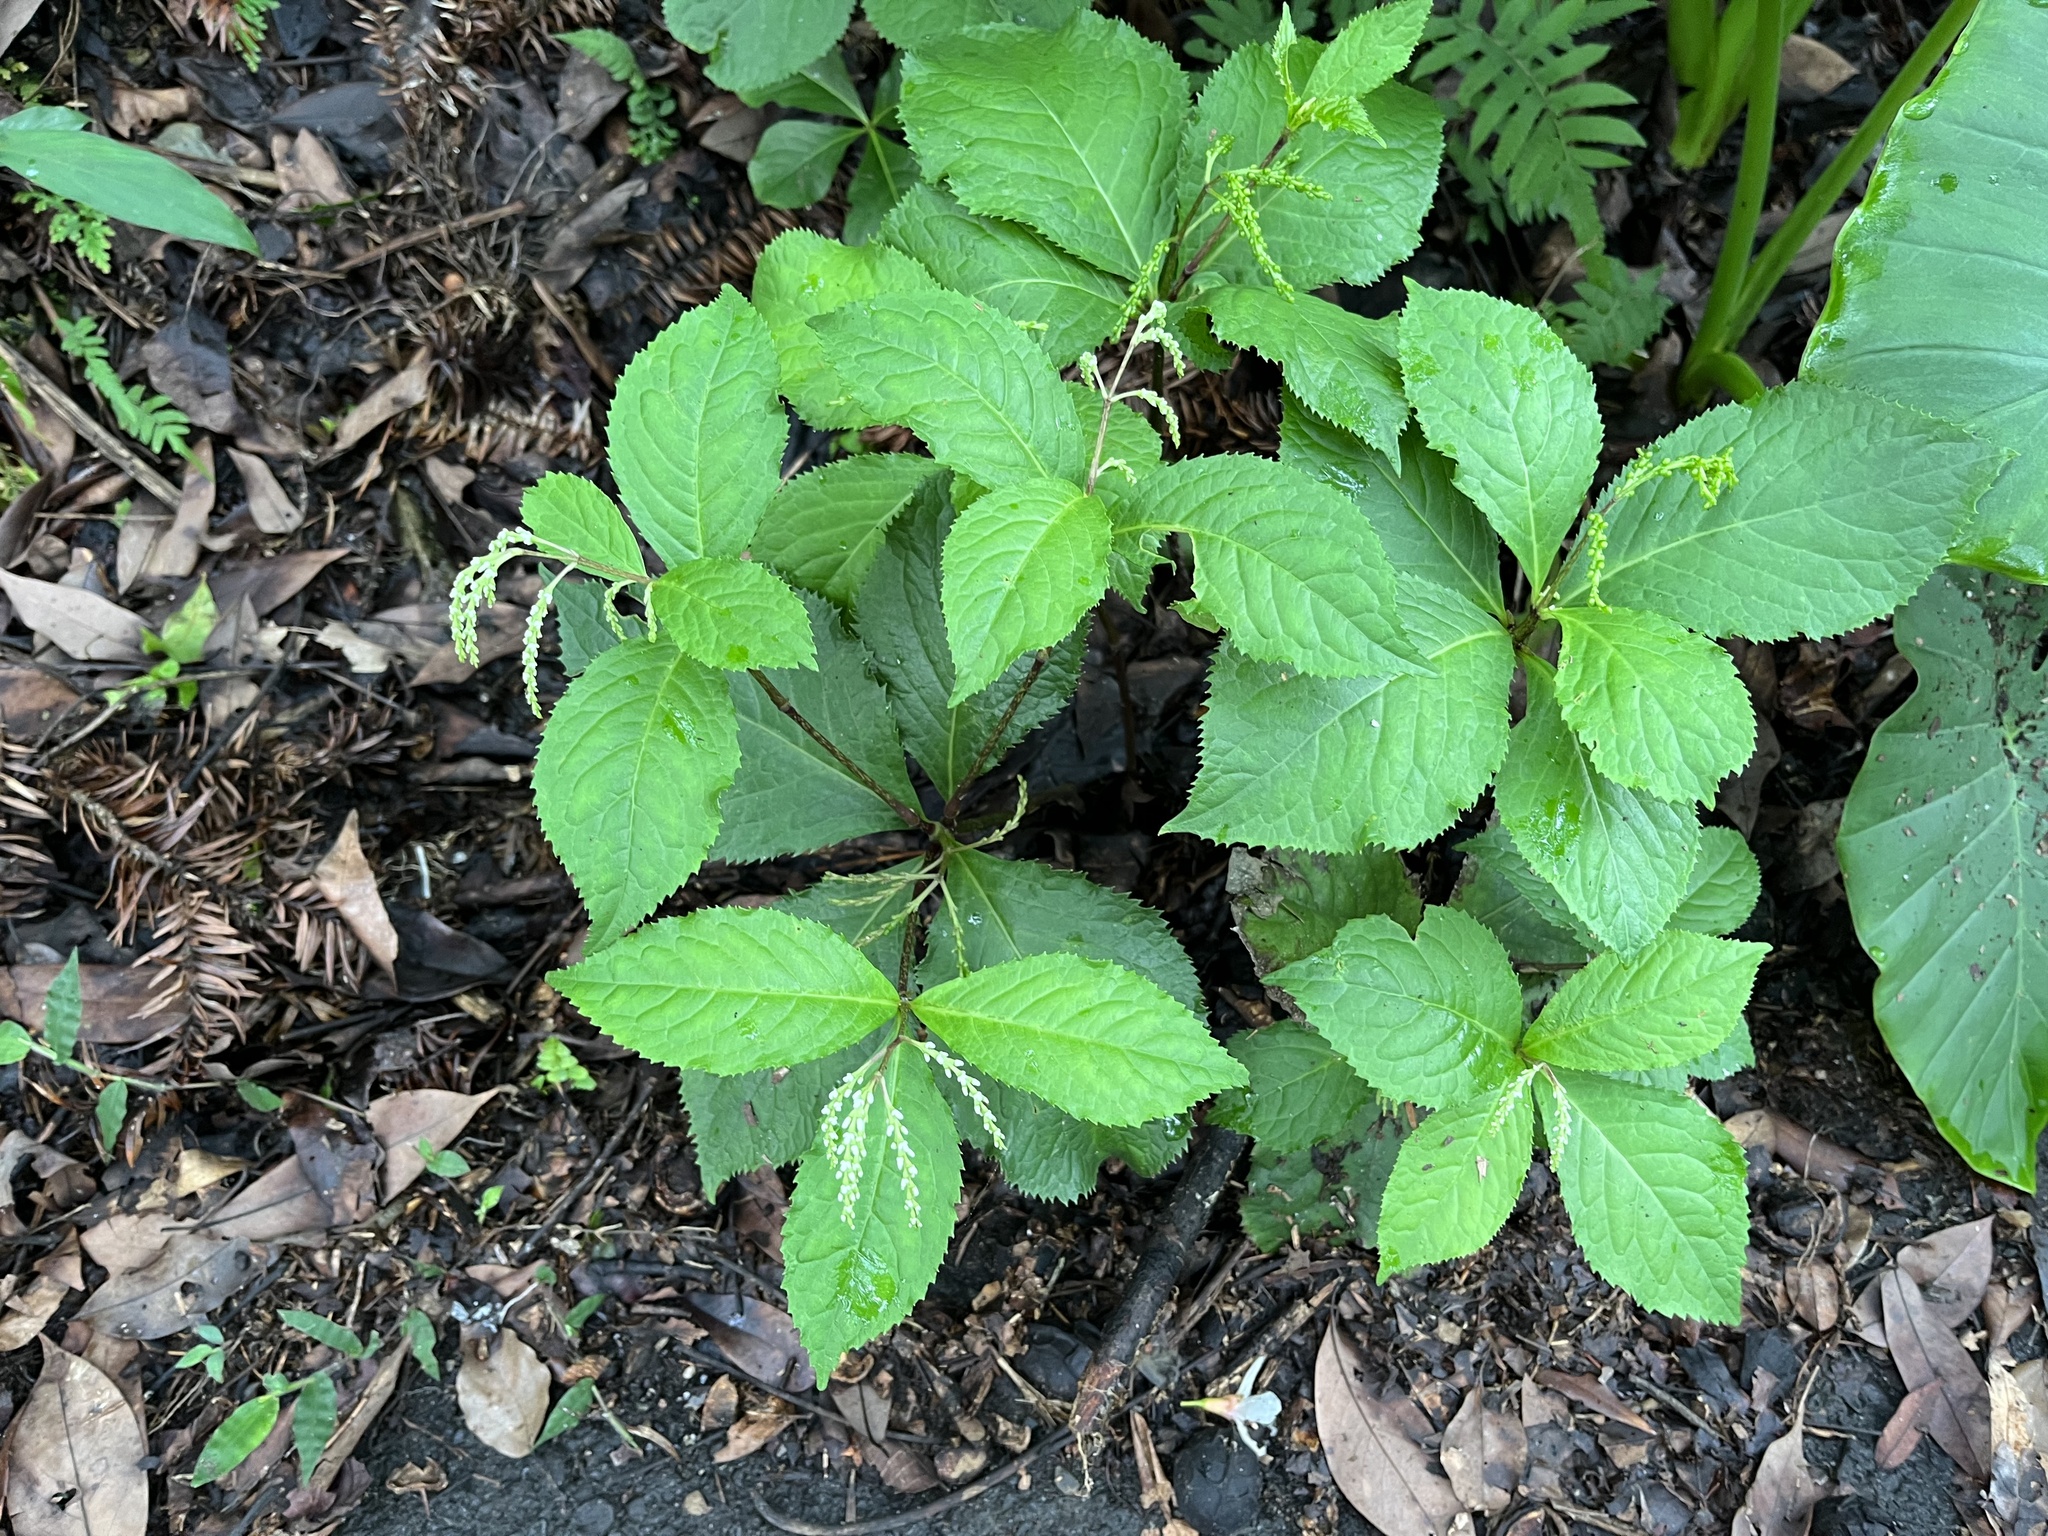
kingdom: Plantae
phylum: Tracheophyta
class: Magnoliopsida
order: Chloranthales
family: Chloranthaceae
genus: Chloranthus
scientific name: Chloranthus oldhamii
